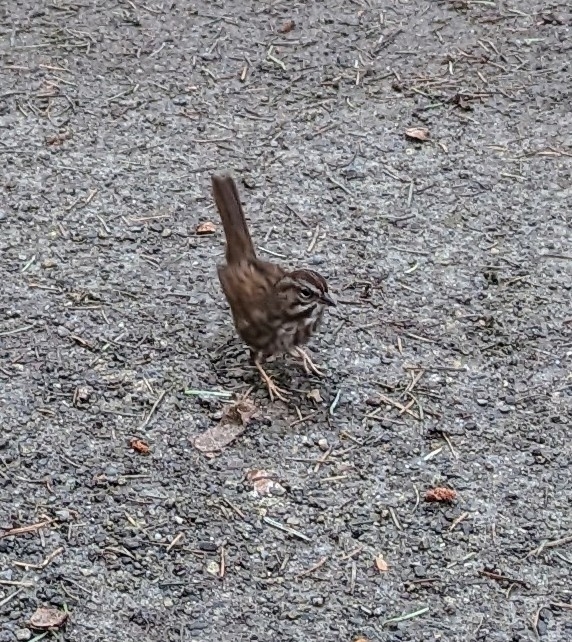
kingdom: Animalia
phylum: Chordata
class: Aves
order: Passeriformes
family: Passerellidae
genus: Melospiza
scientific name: Melospiza melodia
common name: Song sparrow
